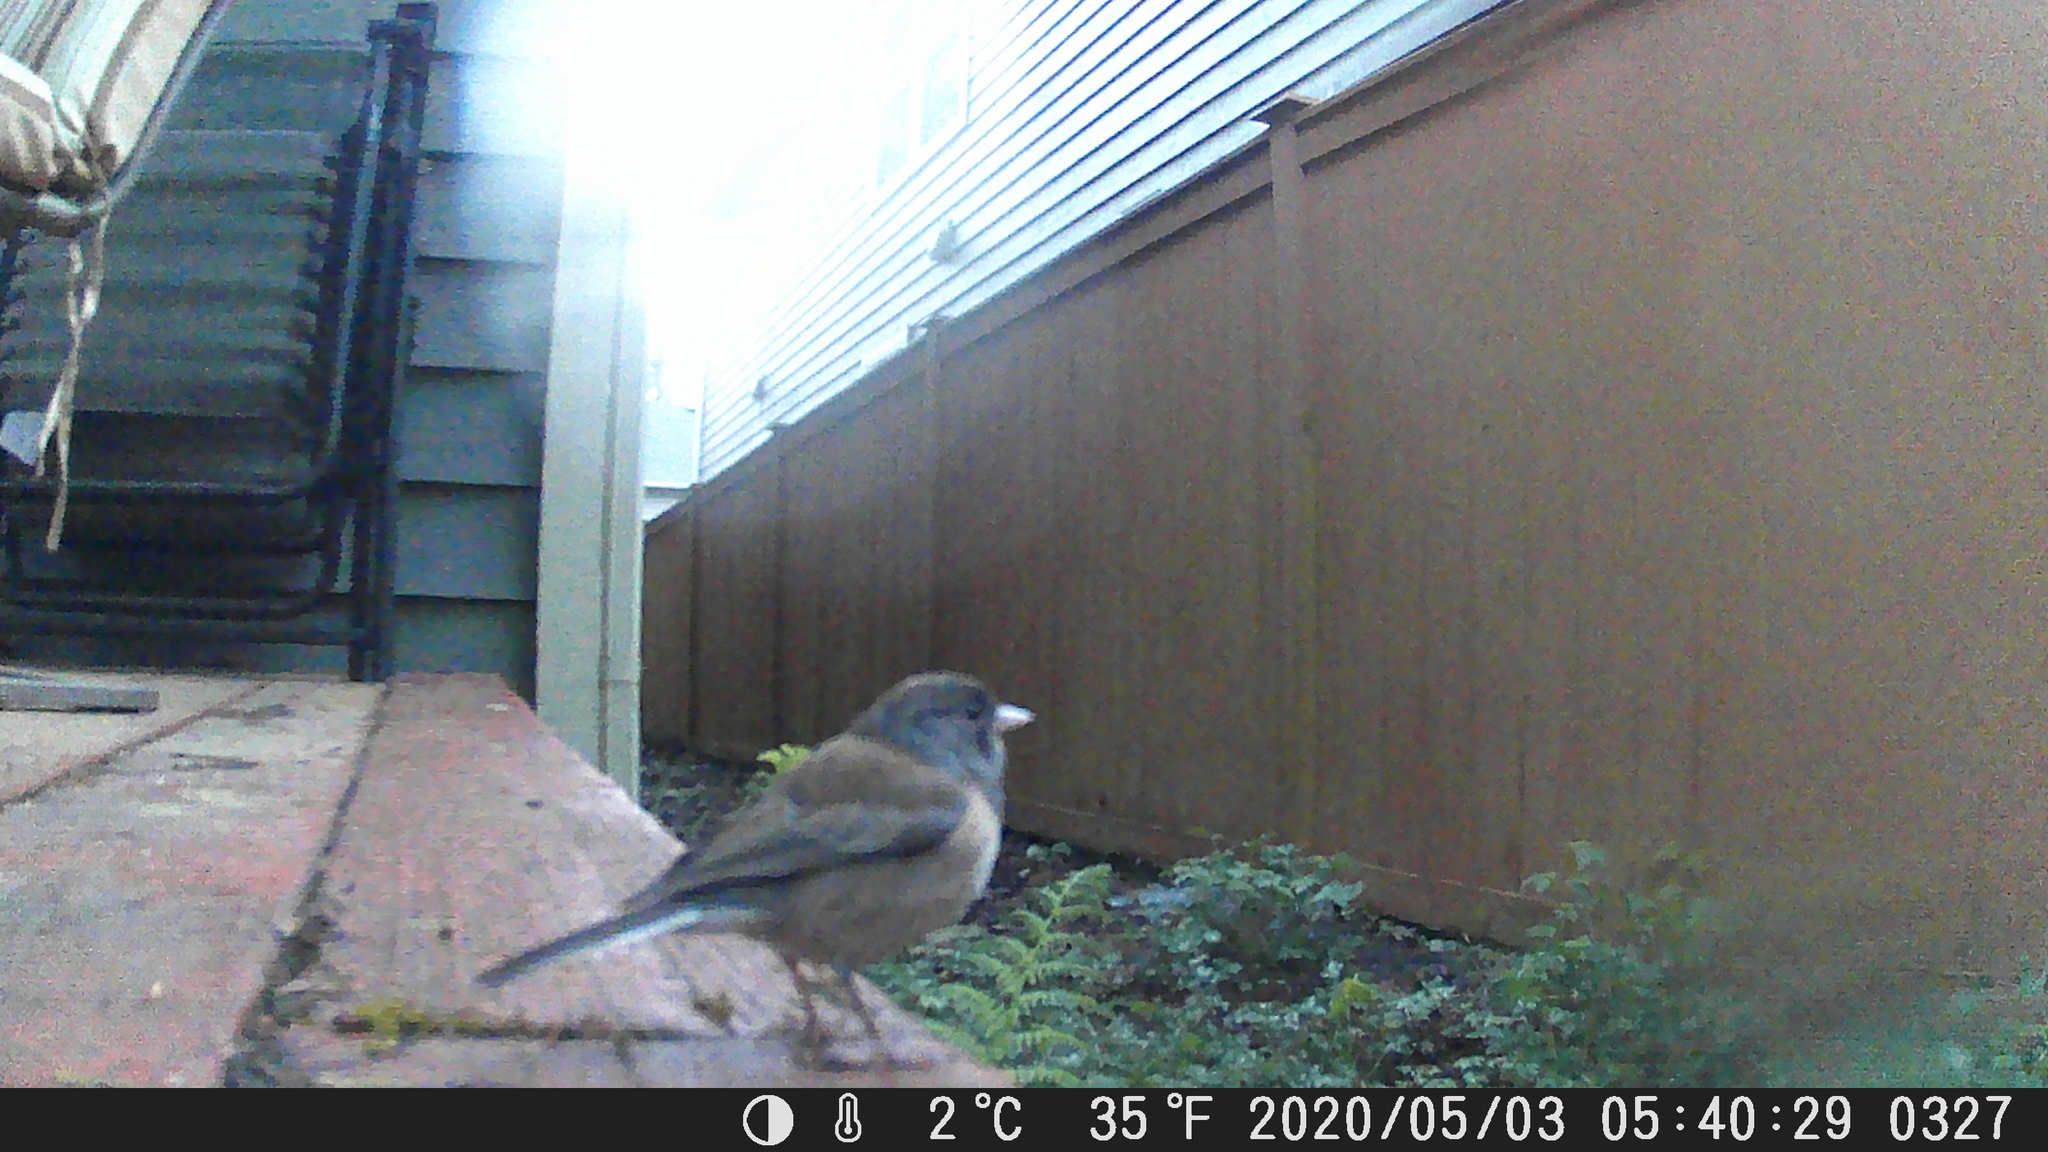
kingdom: Animalia
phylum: Chordata
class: Aves
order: Passeriformes
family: Passerellidae
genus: Junco
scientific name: Junco hyemalis
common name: Dark-eyed junco
